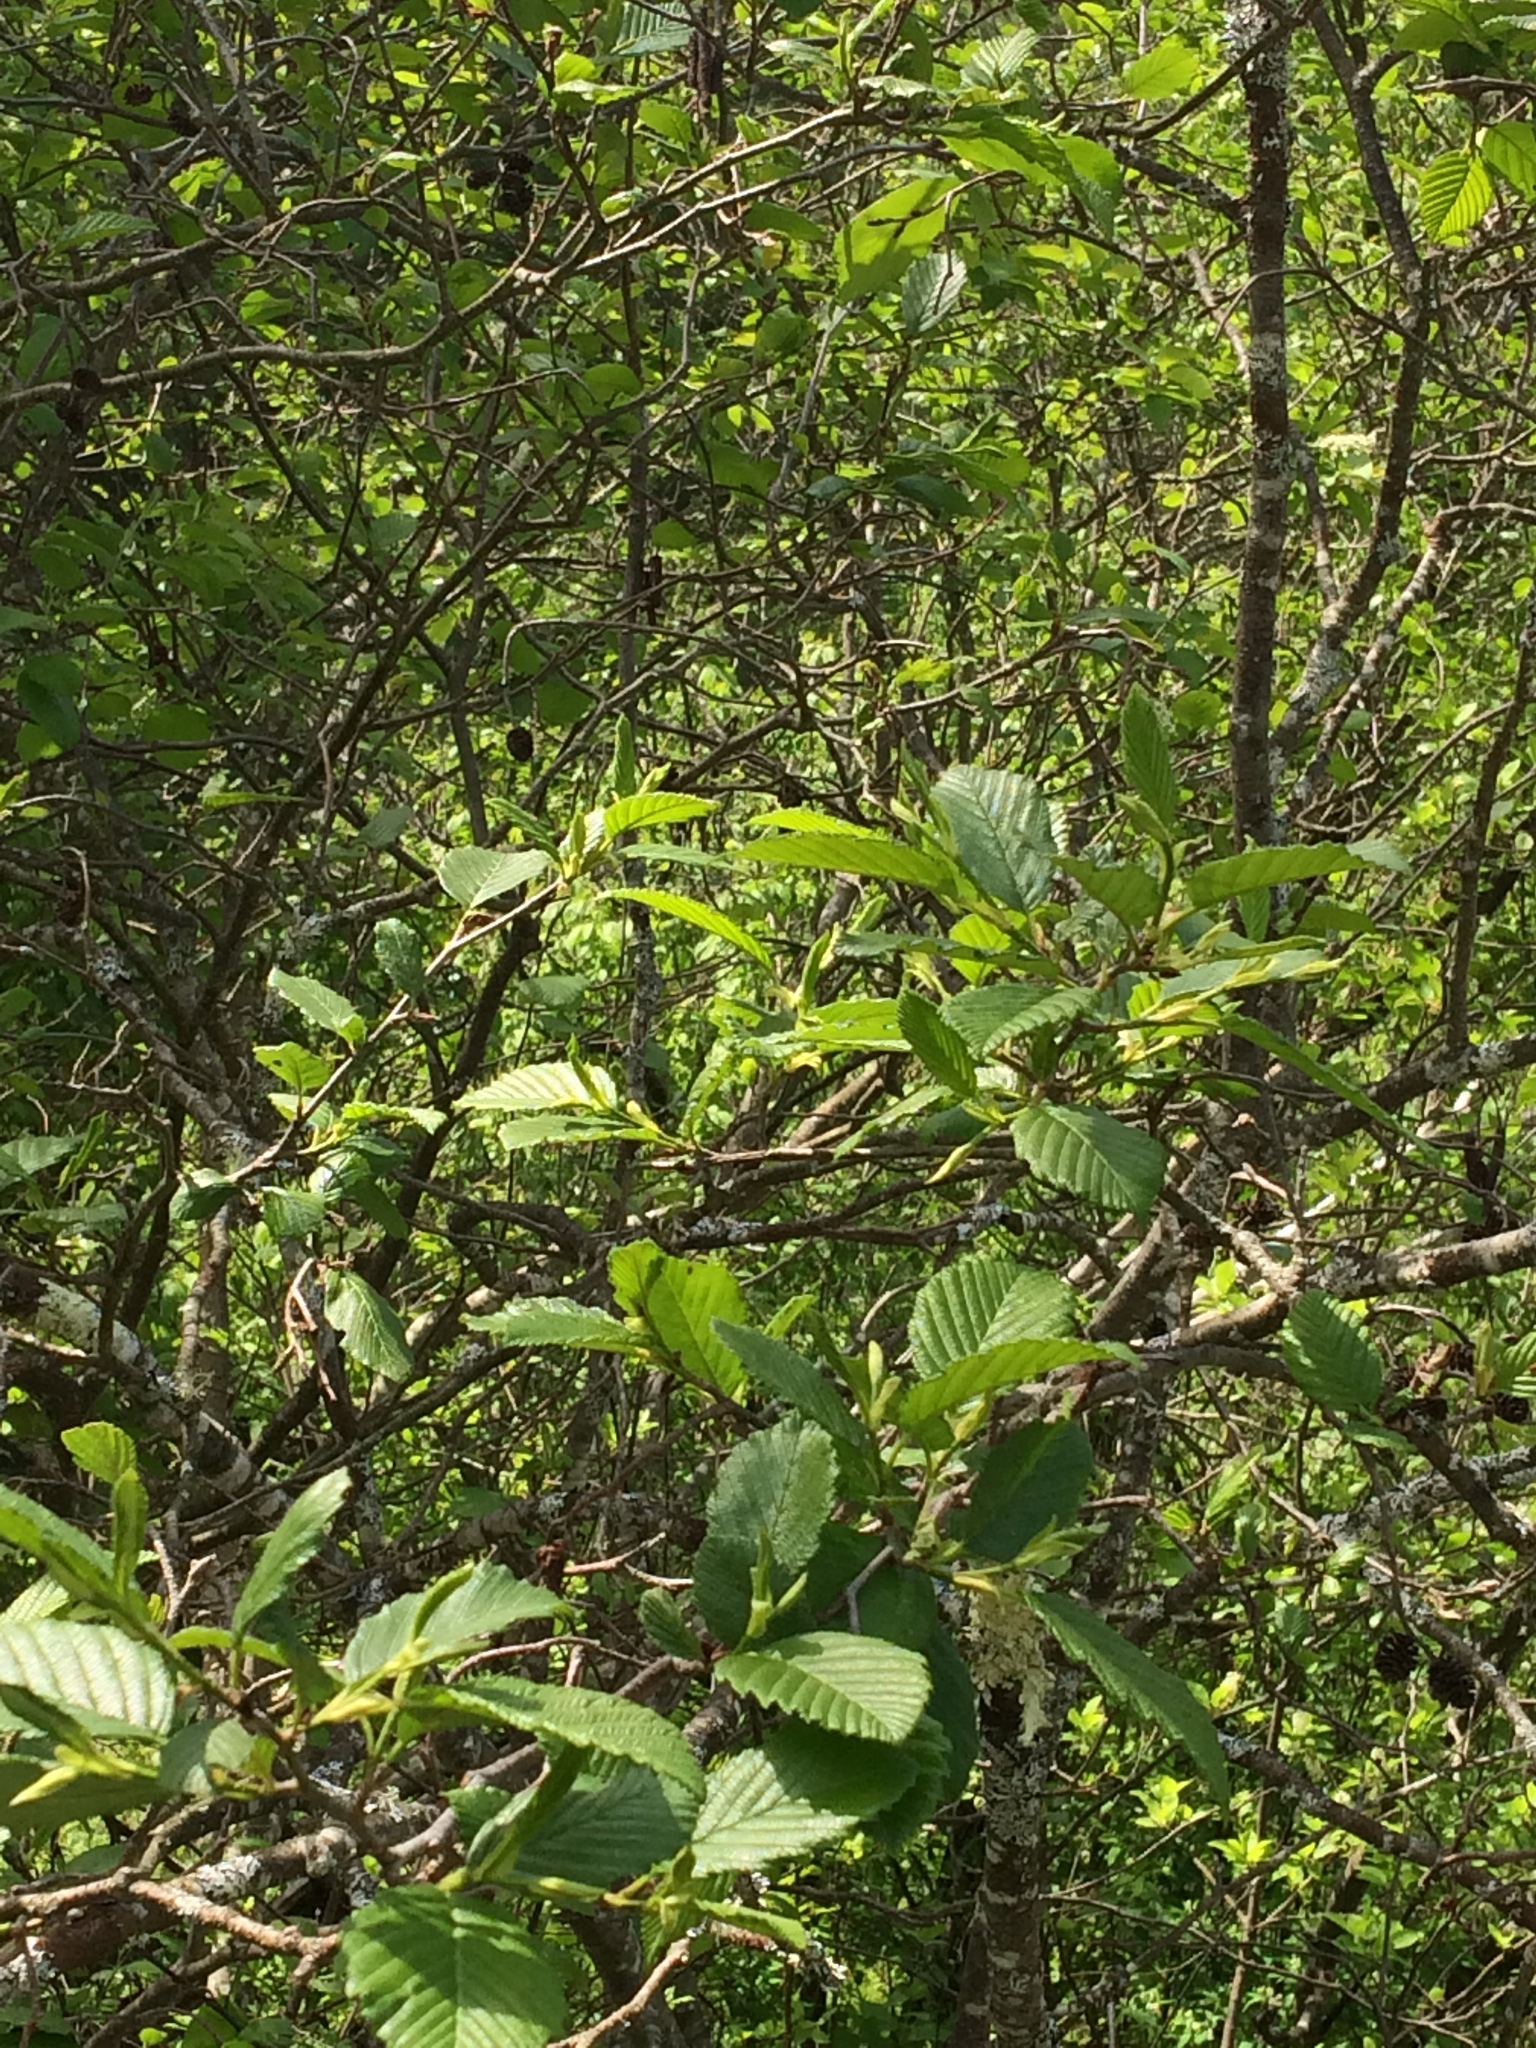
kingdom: Plantae
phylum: Tracheophyta
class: Magnoliopsida
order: Fagales
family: Betulaceae
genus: Alnus
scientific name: Alnus incana
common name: Grey alder
